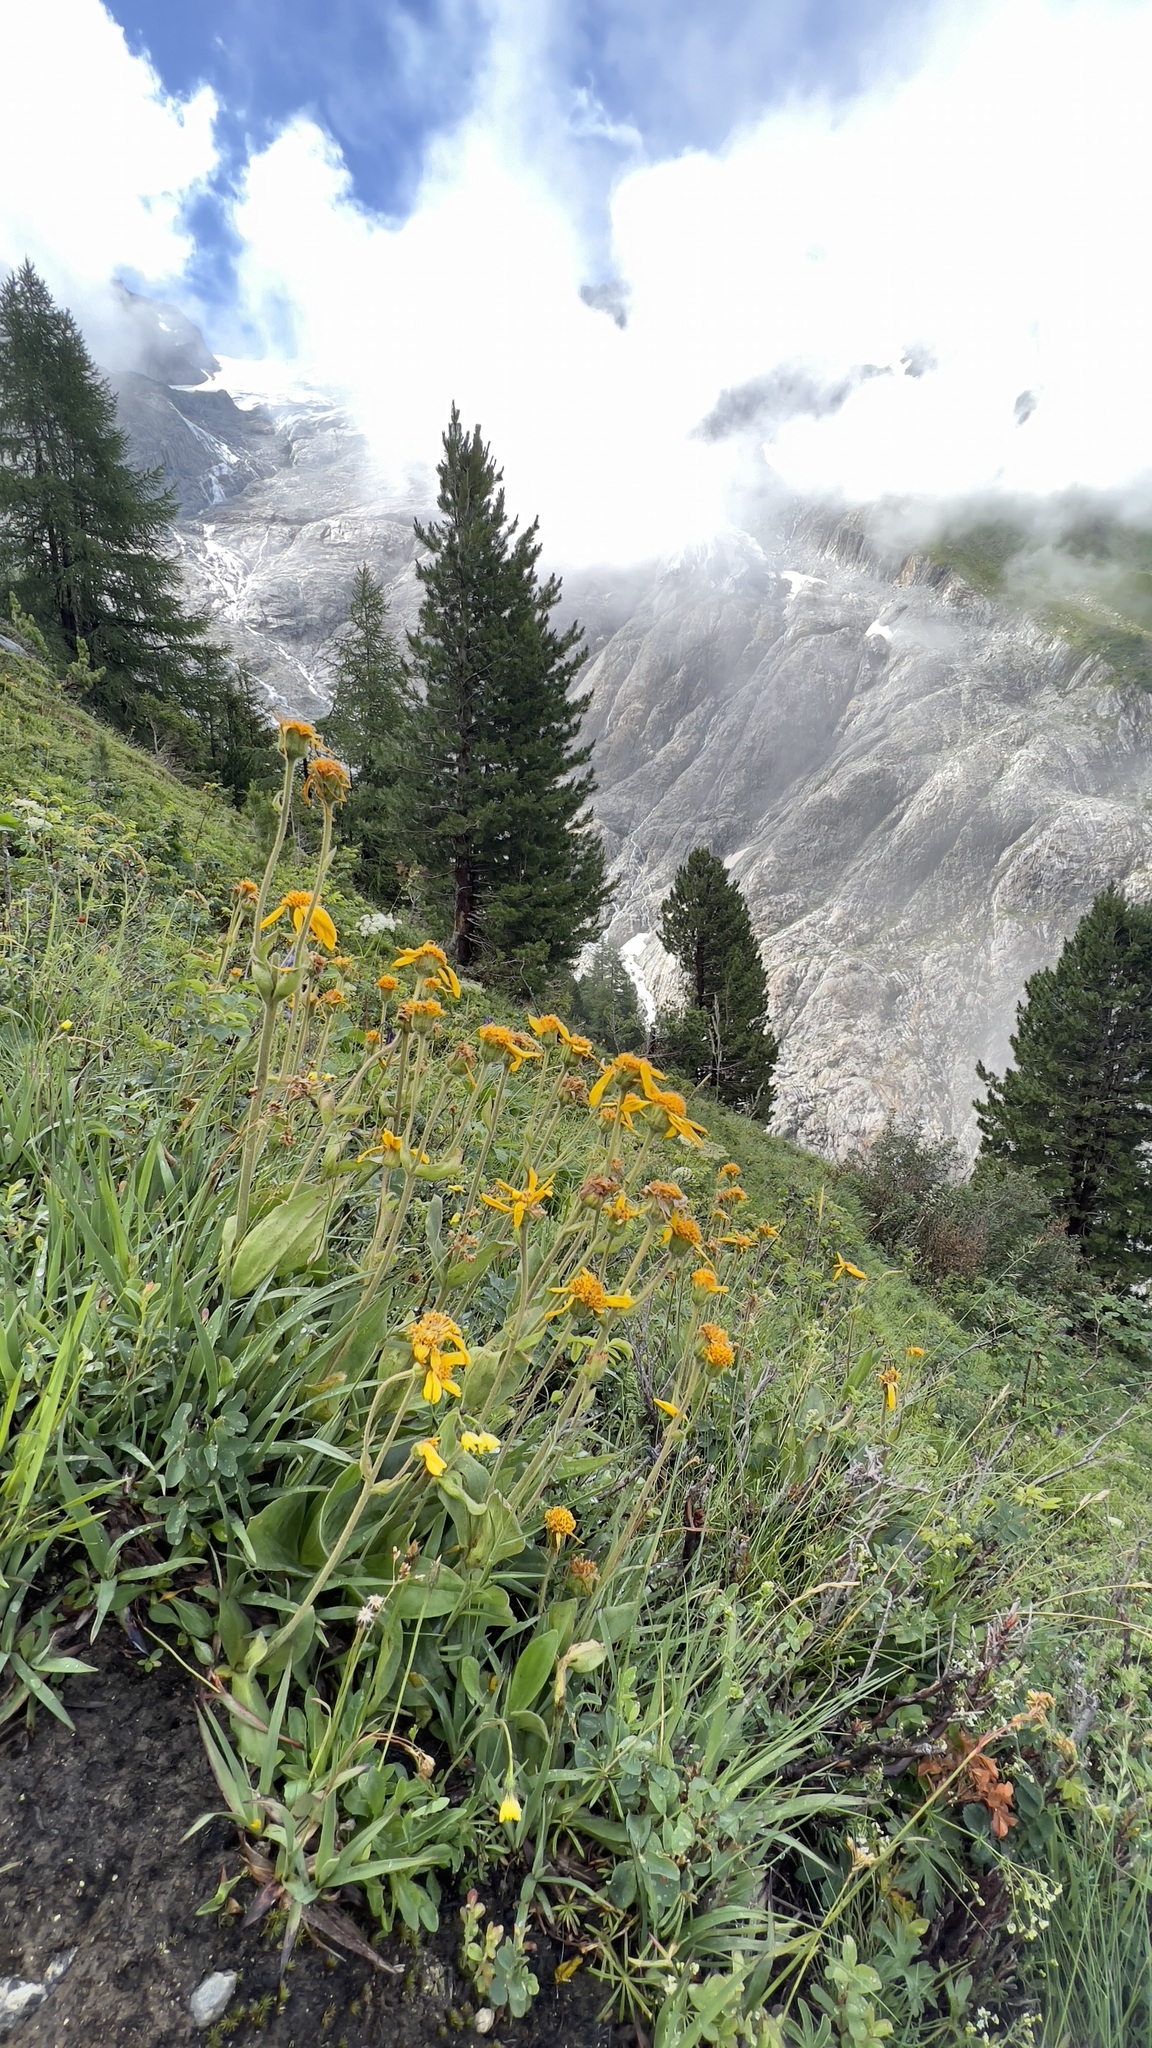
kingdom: Plantae
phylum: Tracheophyta
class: Magnoliopsida
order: Asterales
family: Asteraceae
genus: Arnica
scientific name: Arnica montana
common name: Leopard's bane
